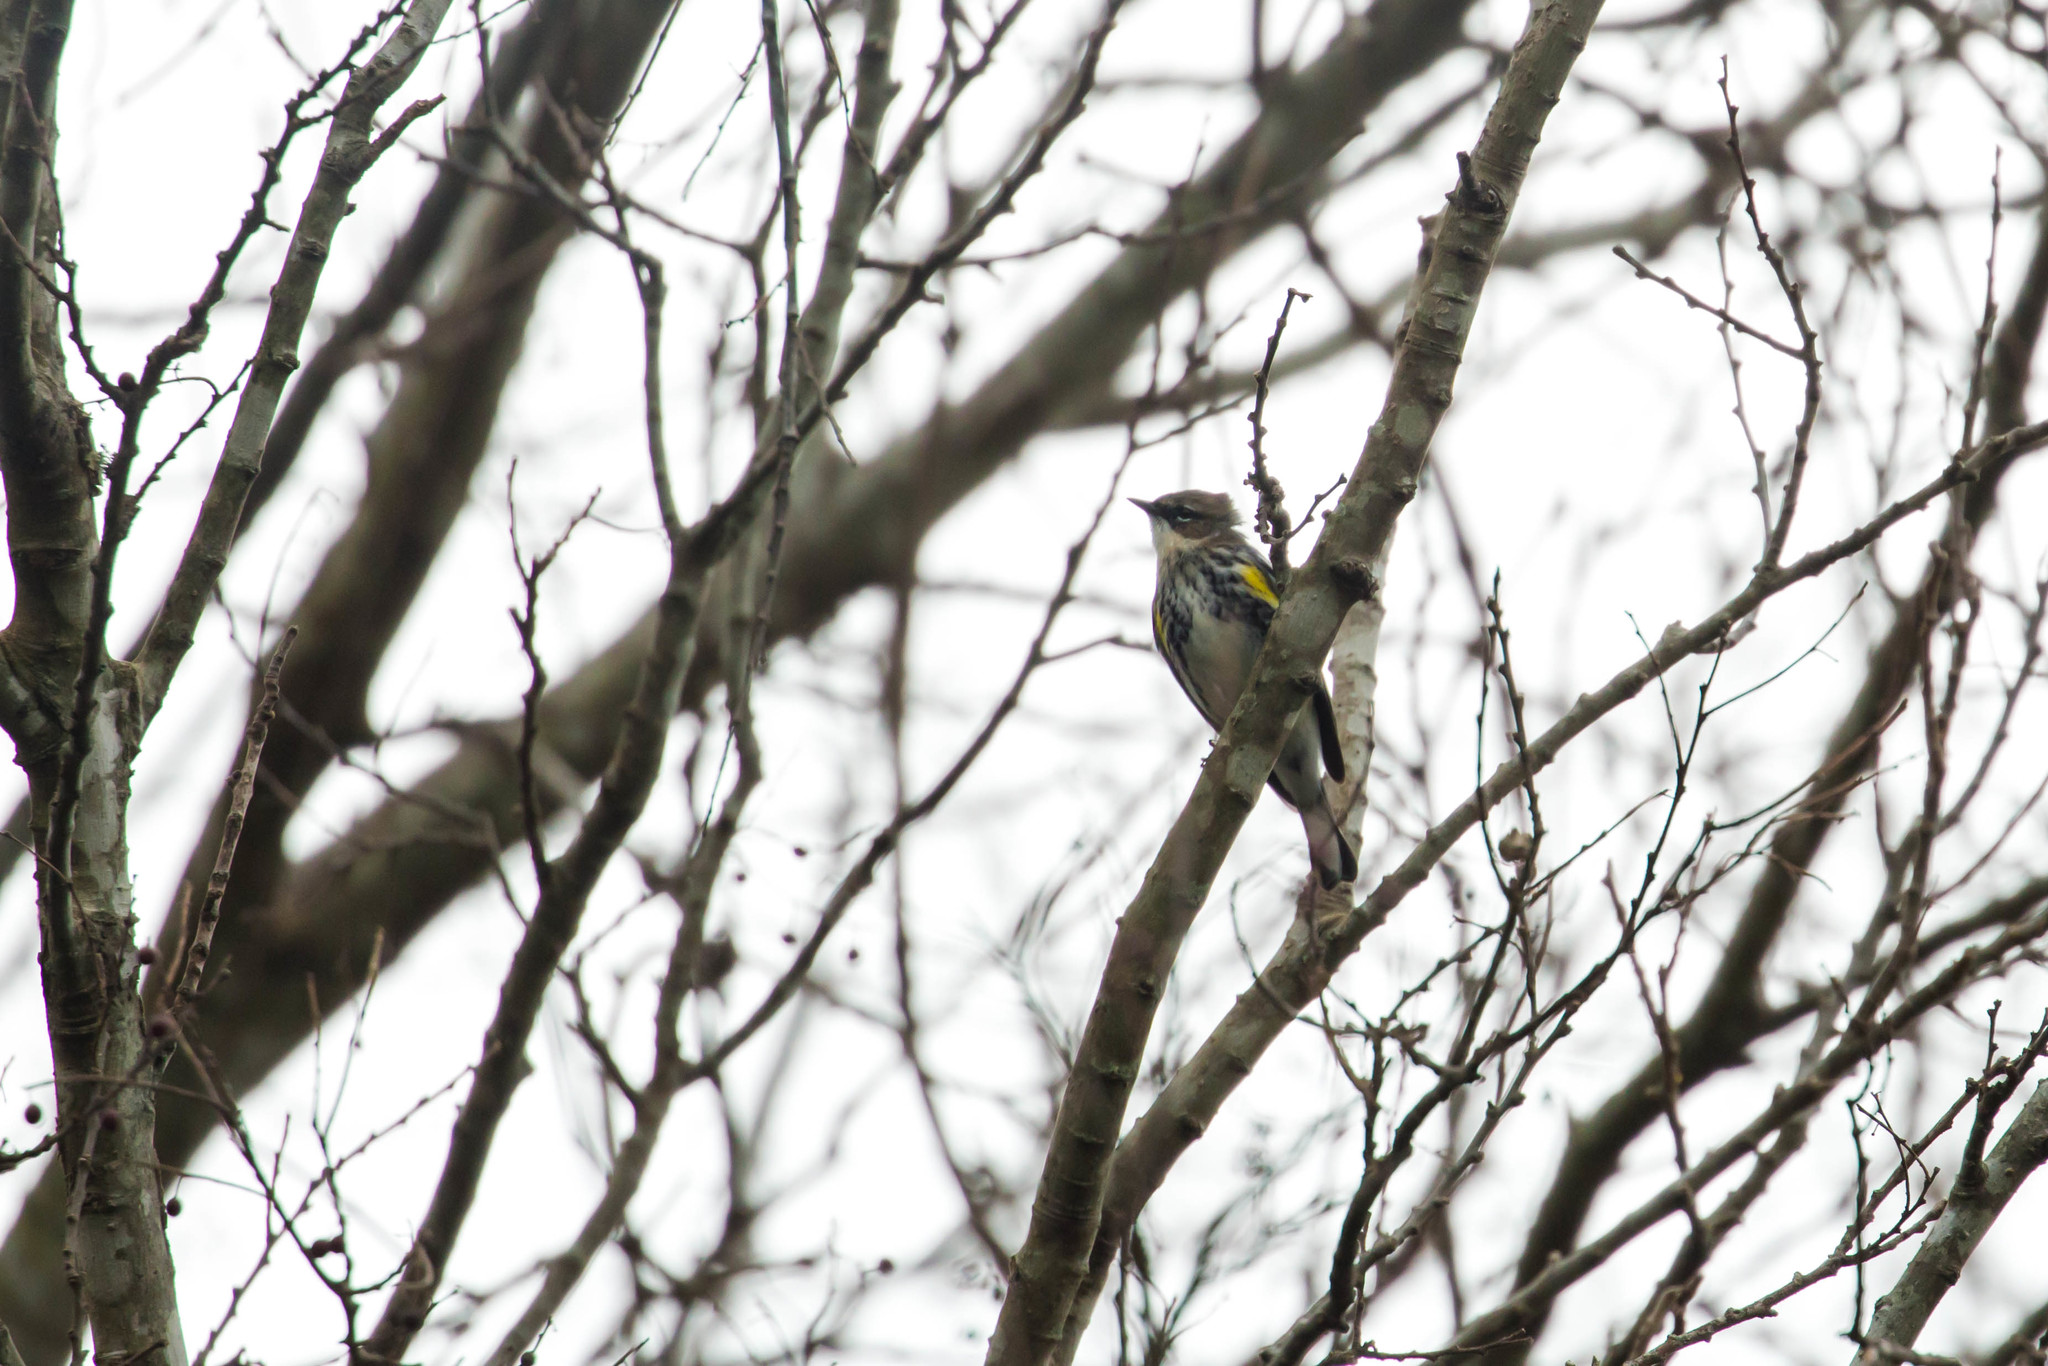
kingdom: Animalia
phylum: Chordata
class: Aves
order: Passeriformes
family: Parulidae
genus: Setophaga
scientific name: Setophaga coronata
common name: Myrtle warbler
